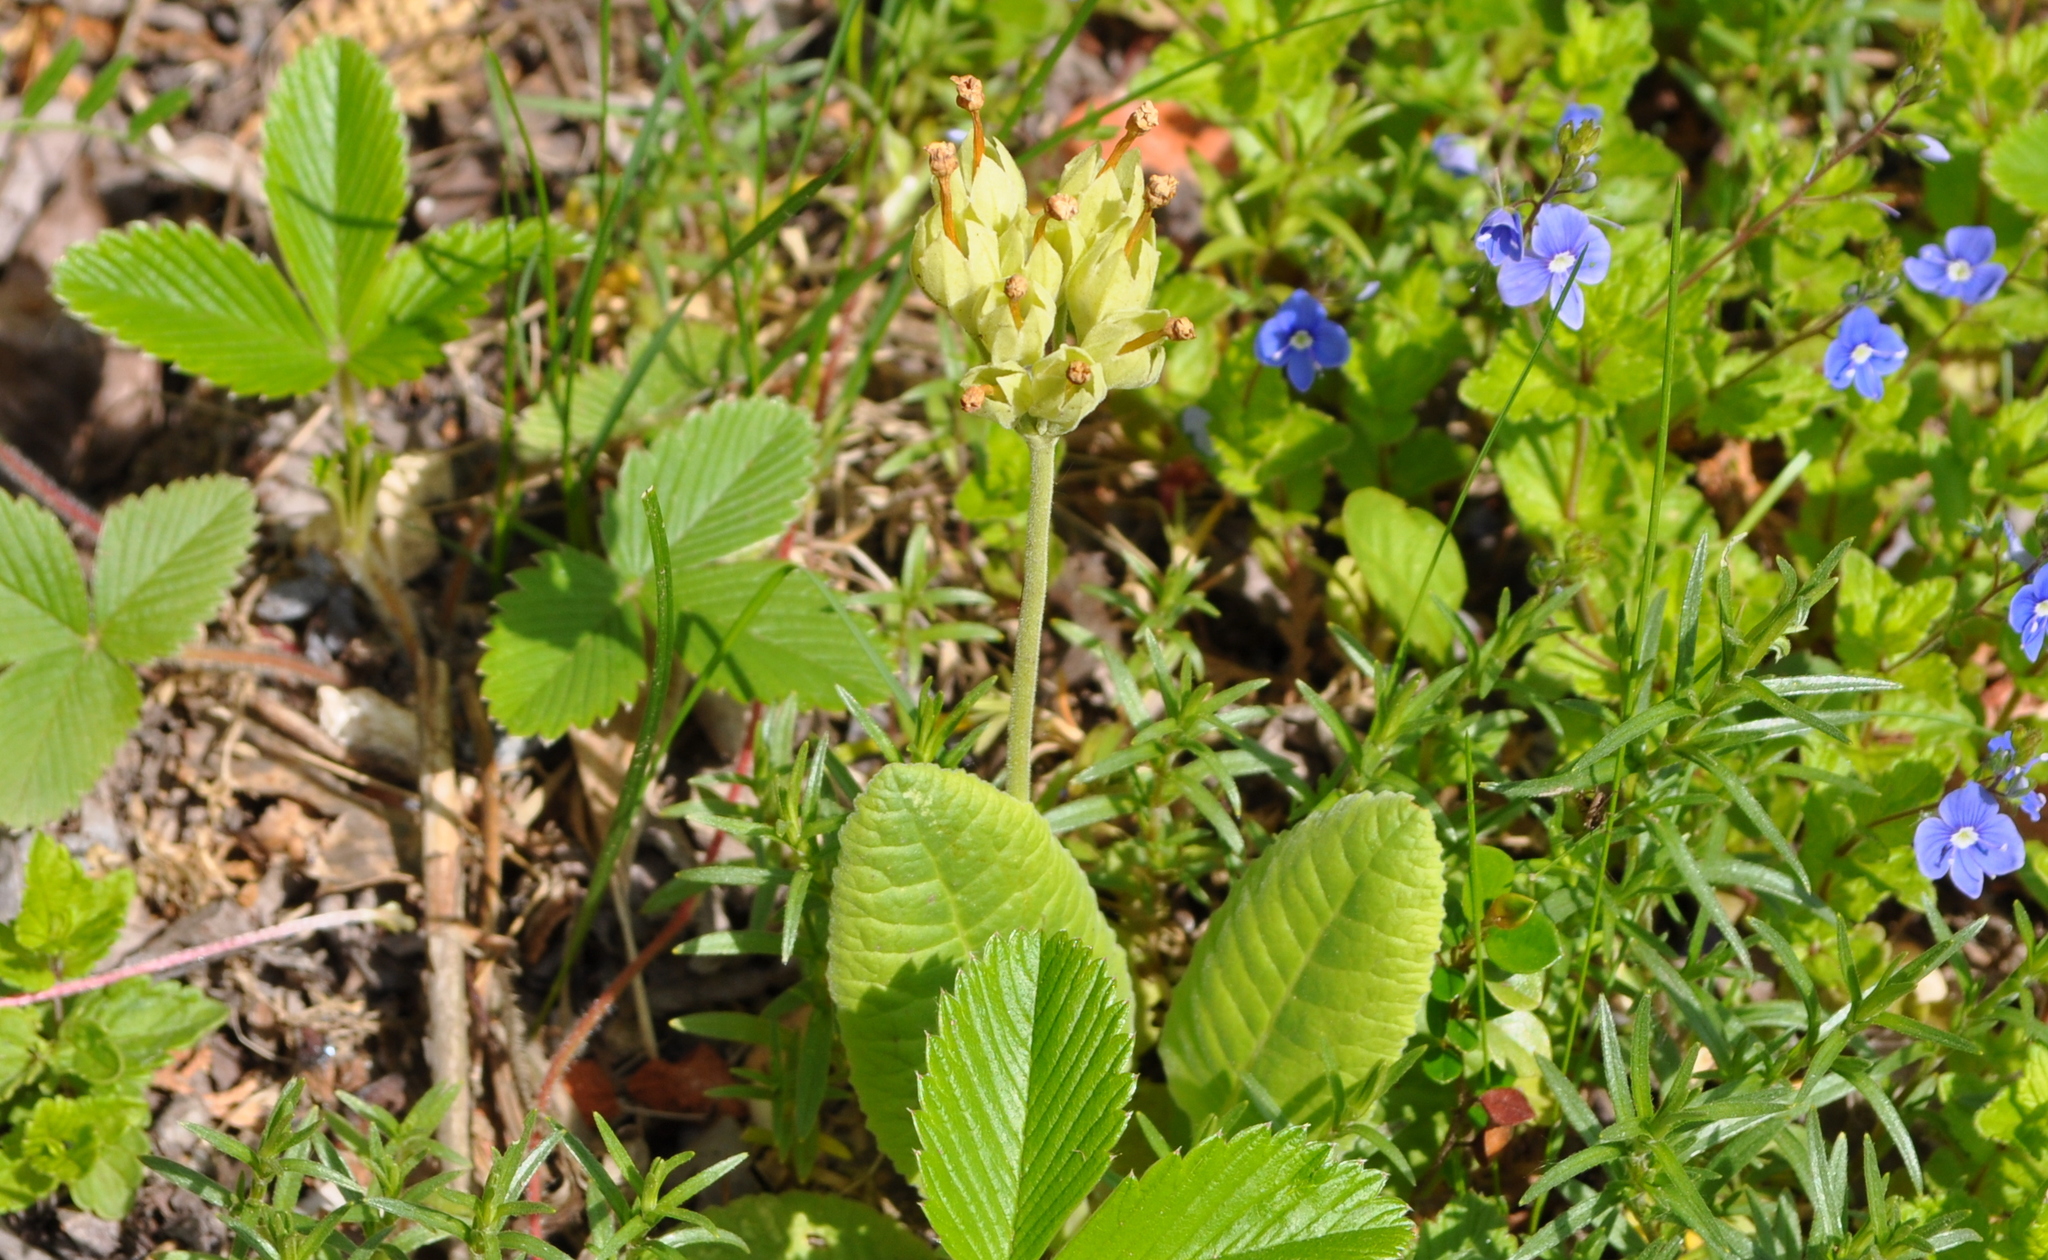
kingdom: Plantae
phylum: Tracheophyta
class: Magnoliopsida
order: Ericales
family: Primulaceae
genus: Primula
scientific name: Primula veris
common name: Cowslip
